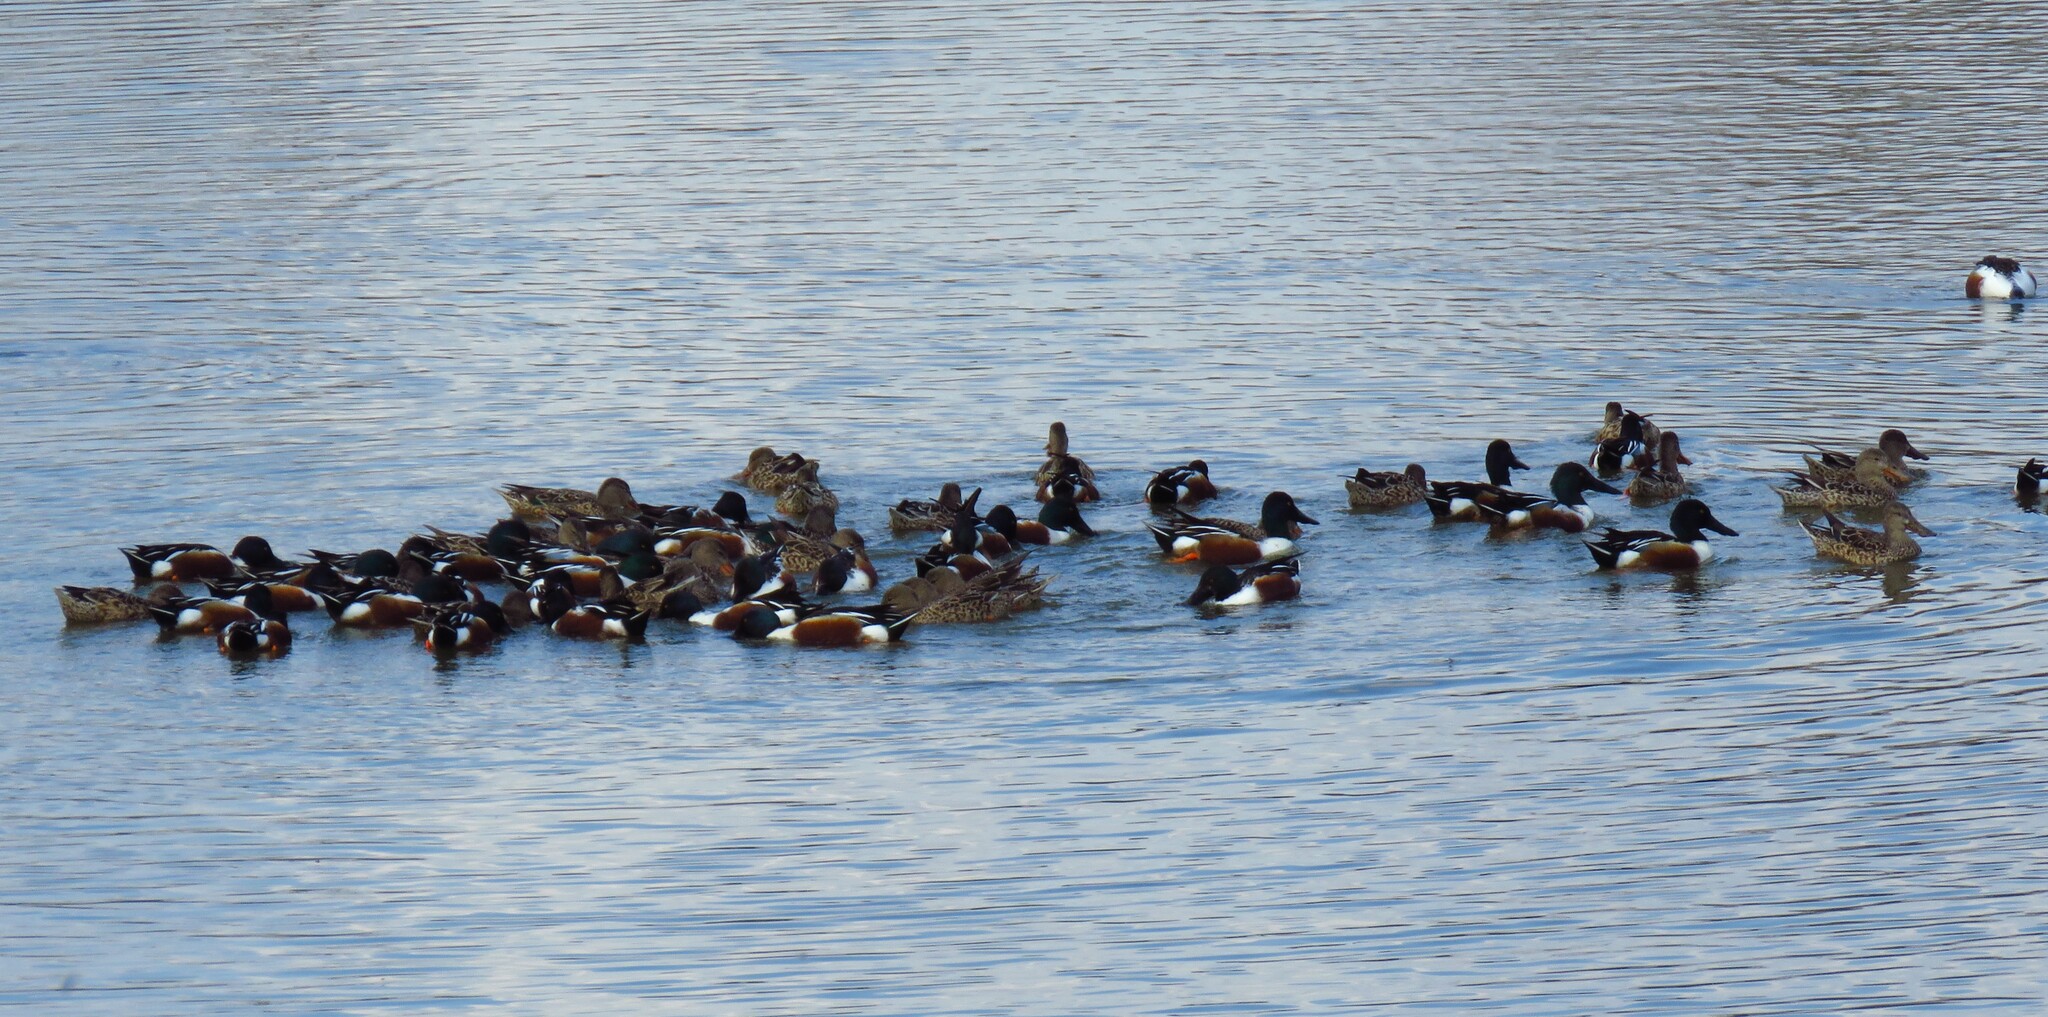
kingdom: Animalia
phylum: Chordata
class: Aves
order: Anseriformes
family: Anatidae
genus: Spatula
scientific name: Spatula clypeata
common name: Northern shoveler
